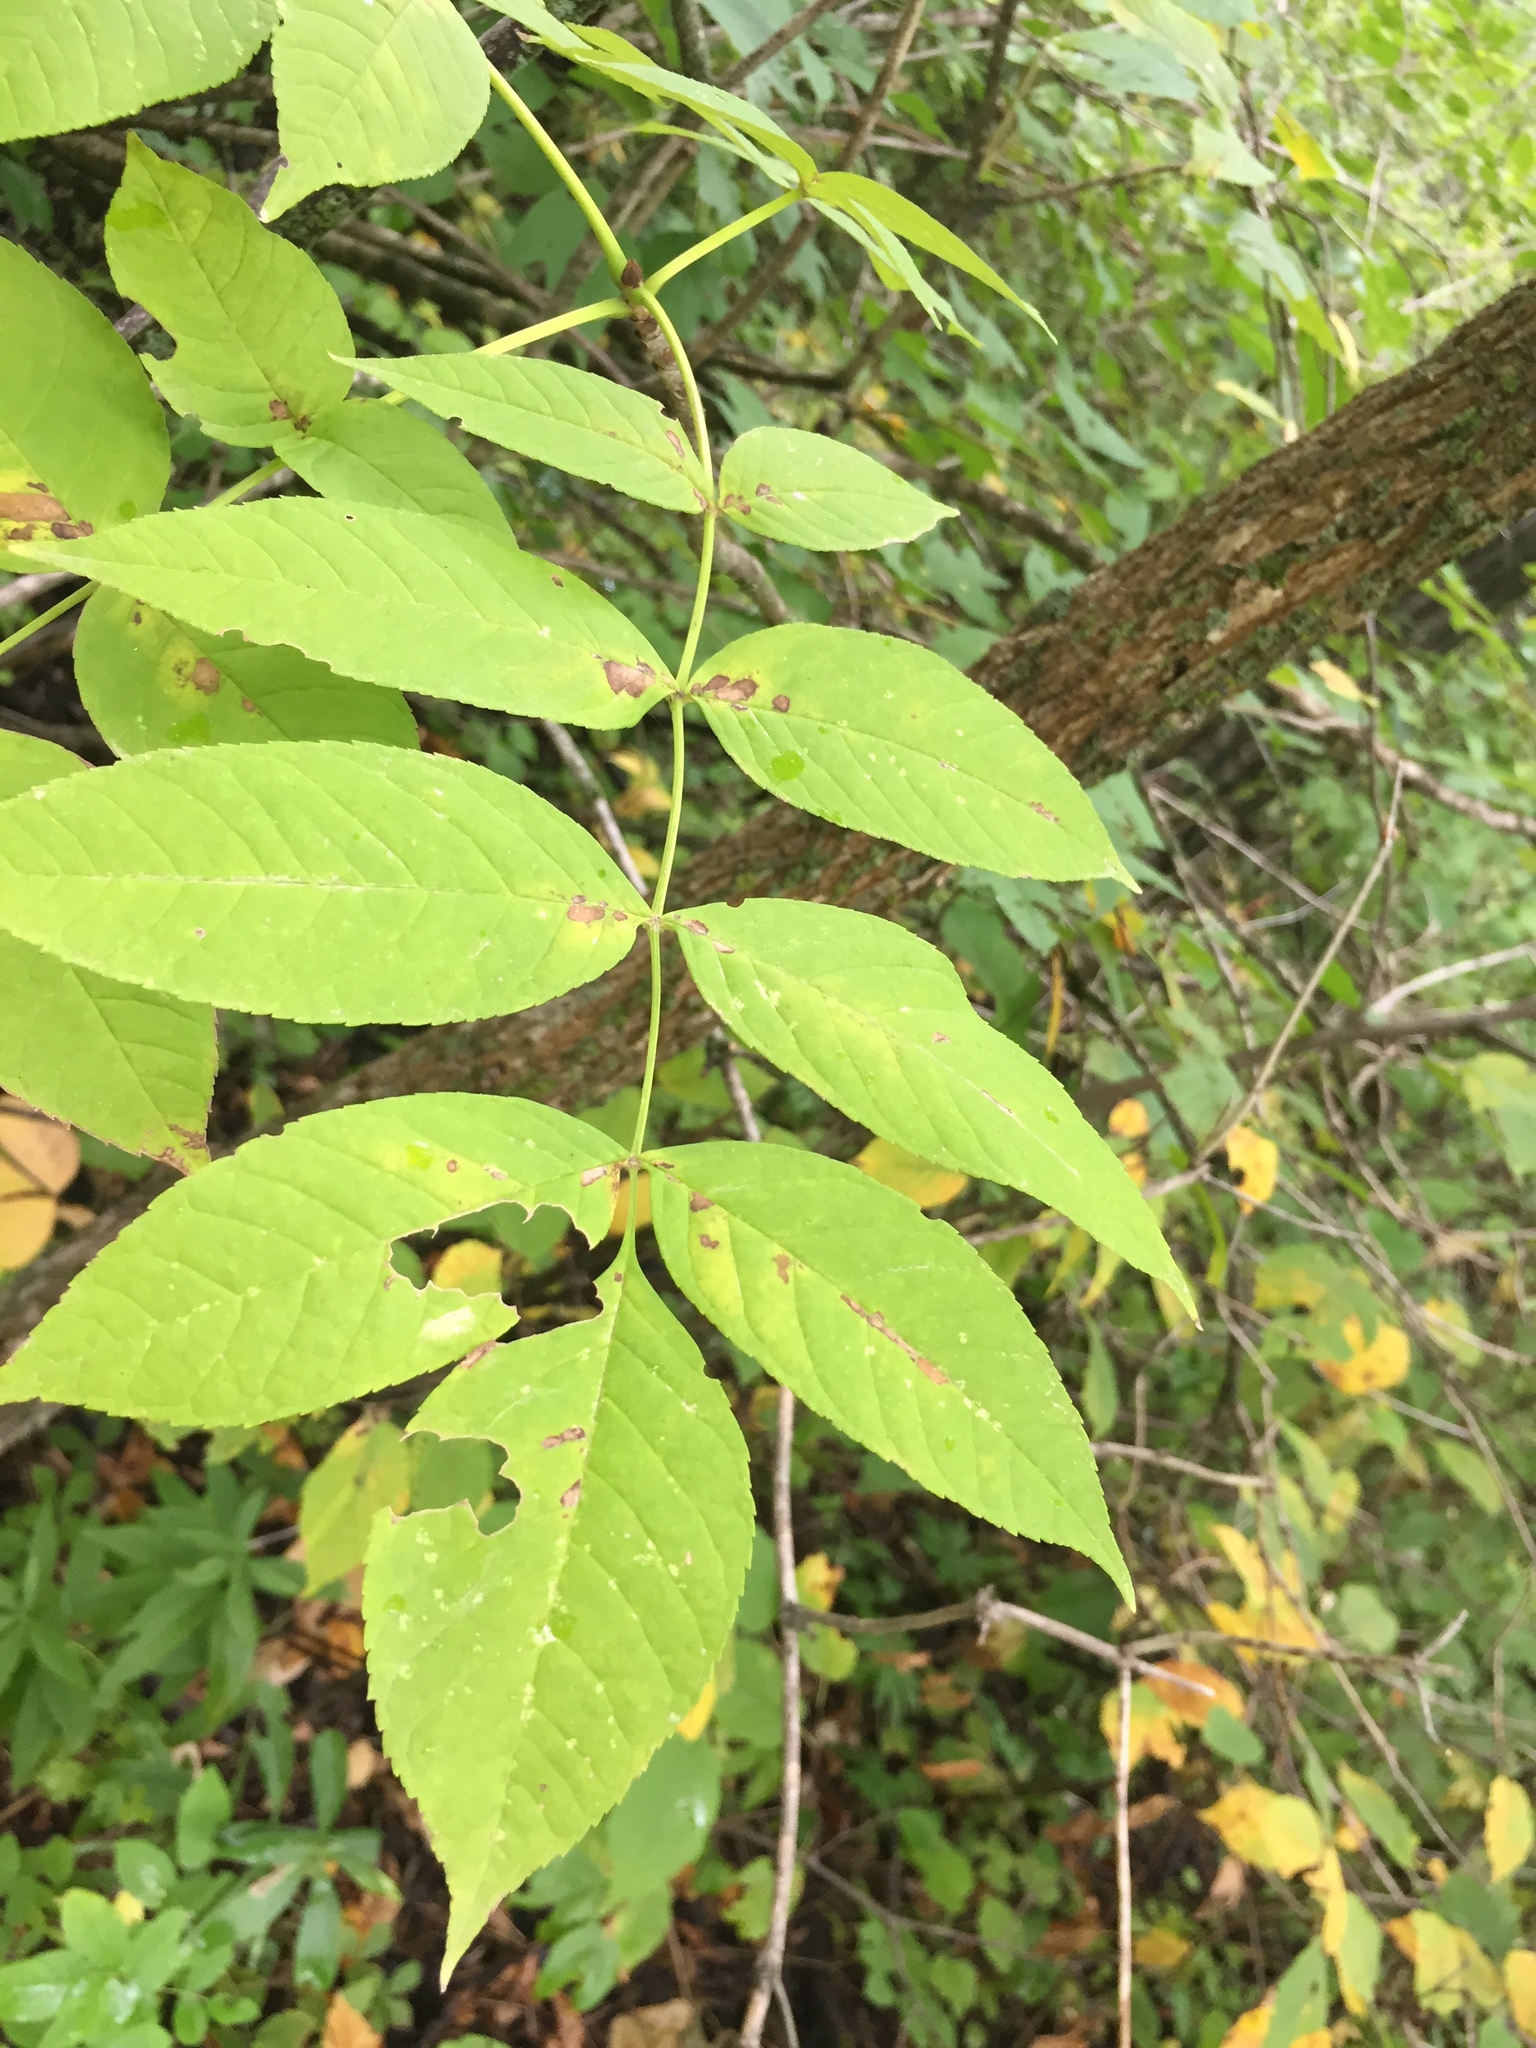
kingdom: Plantae
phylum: Tracheophyta
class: Magnoliopsida
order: Lamiales
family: Oleaceae
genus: Fraxinus
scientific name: Fraxinus nigra
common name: Black ash
